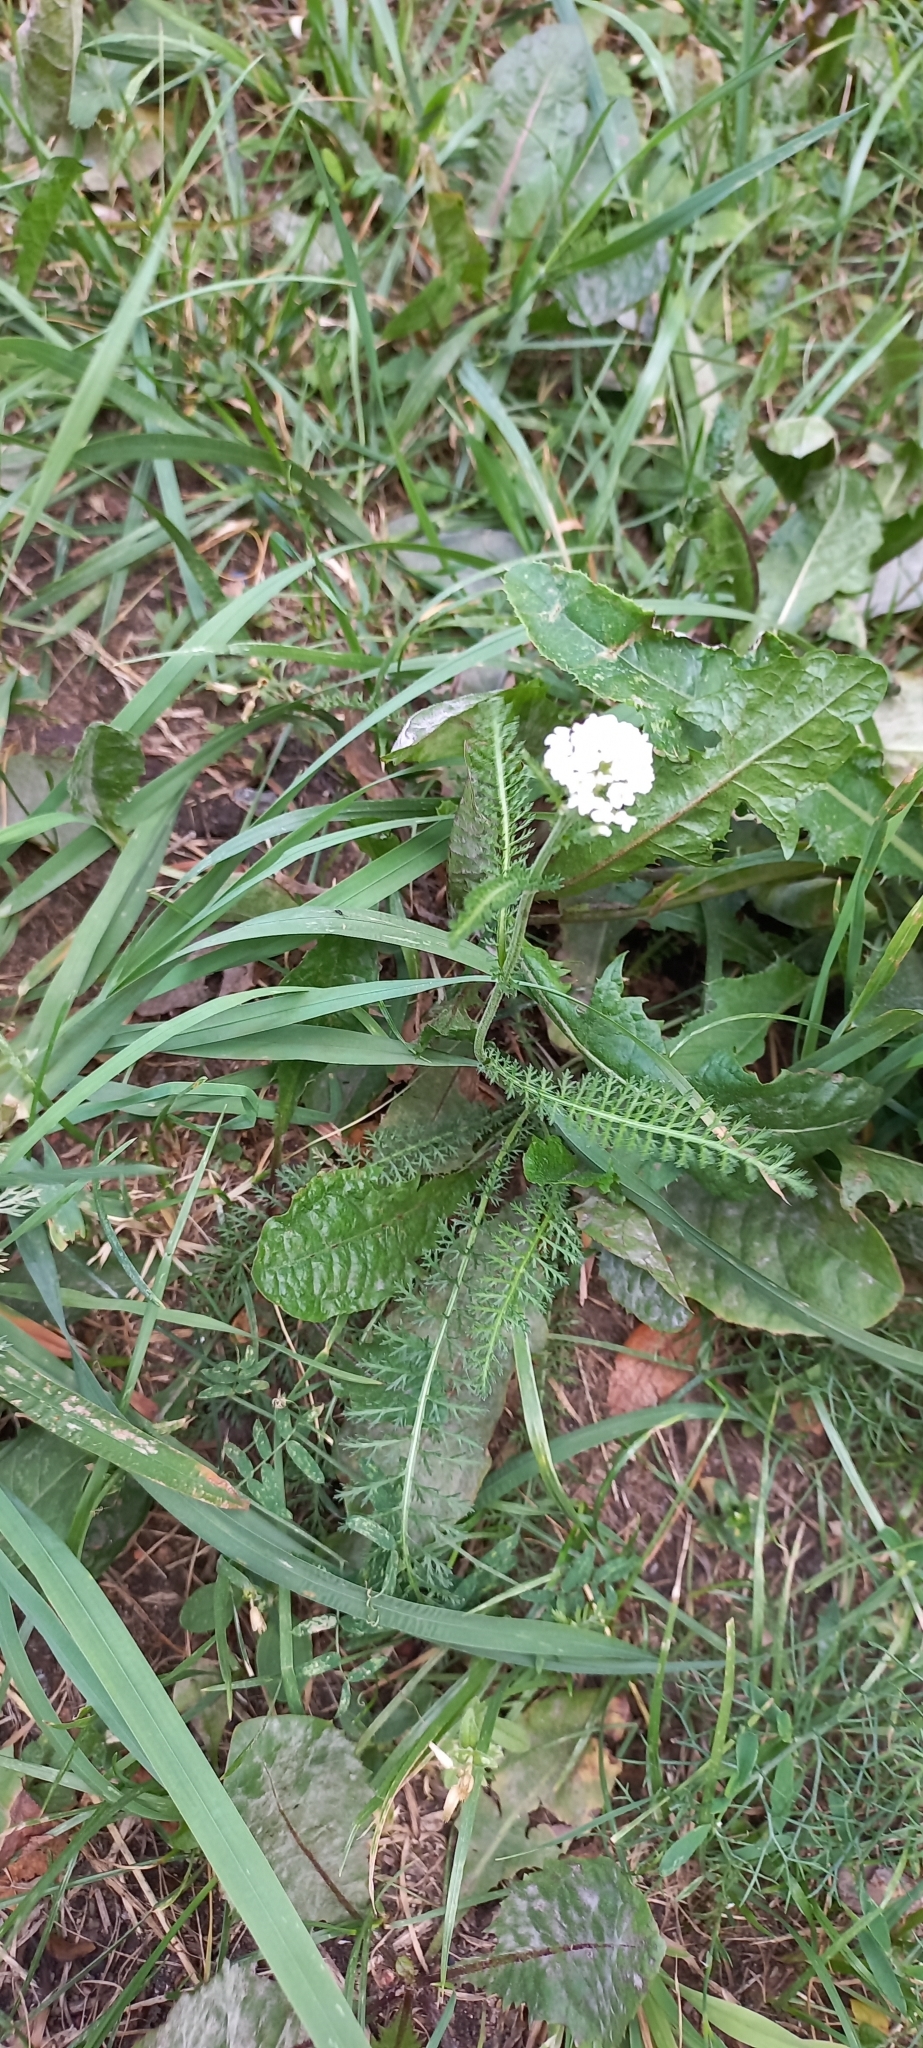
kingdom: Plantae
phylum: Tracheophyta
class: Magnoliopsida
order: Asterales
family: Asteraceae
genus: Achillea
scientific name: Achillea millefolium
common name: Yarrow
